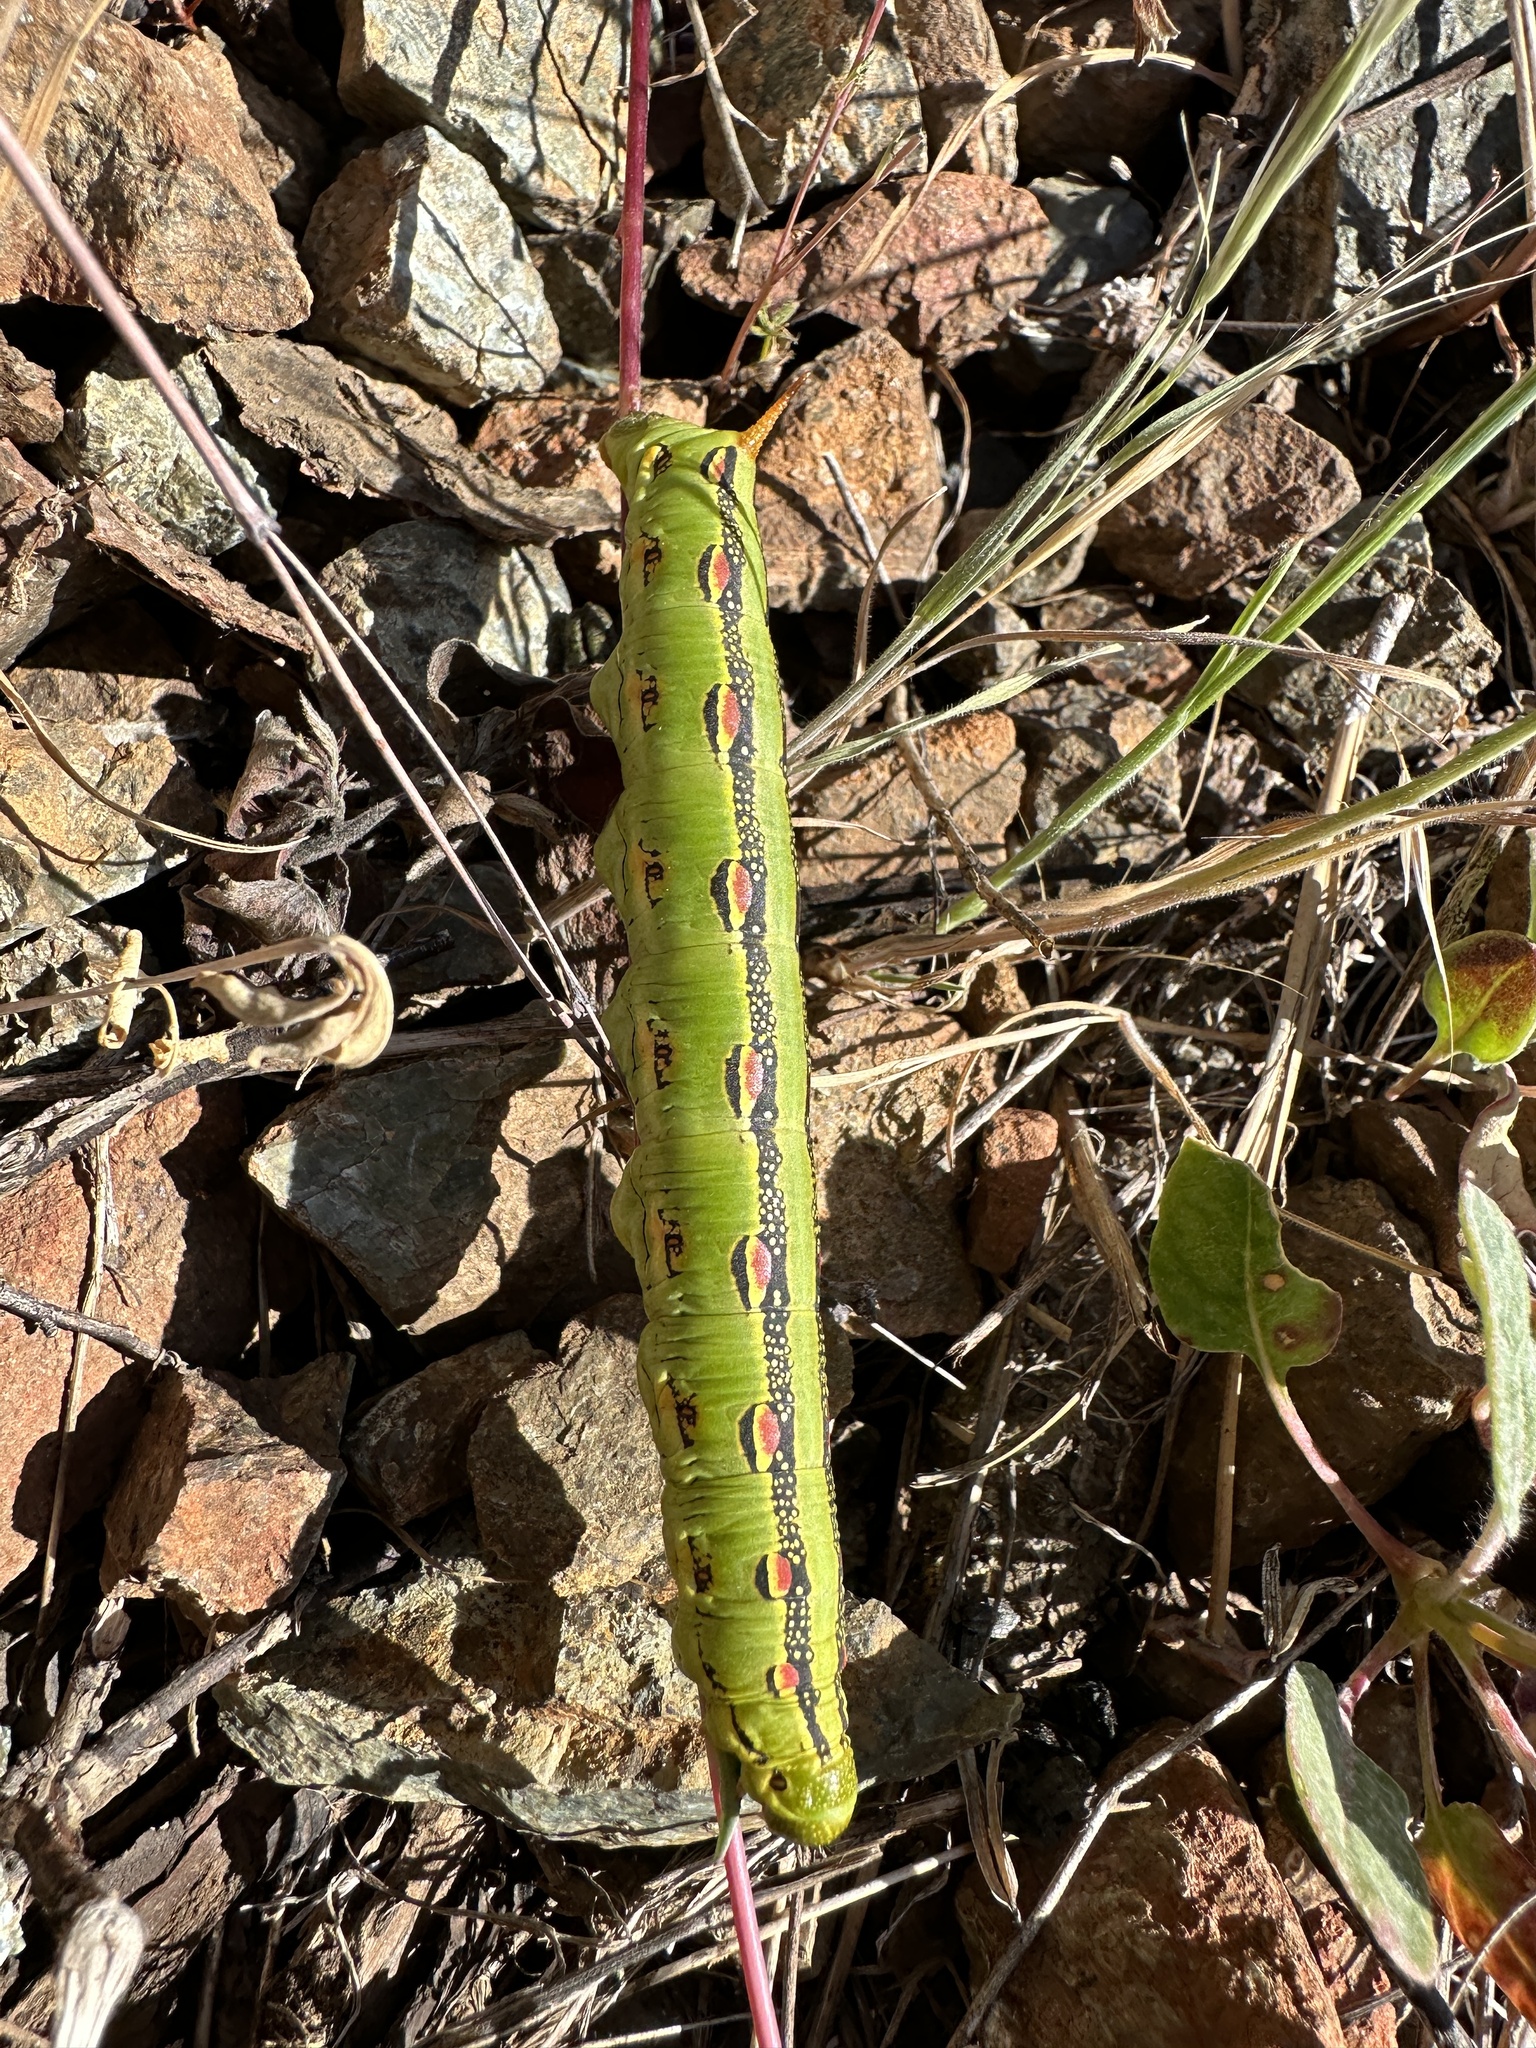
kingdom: Animalia
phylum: Arthropoda
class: Insecta
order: Lepidoptera
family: Sphingidae
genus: Hyles
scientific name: Hyles lineata
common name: White-lined sphinx
